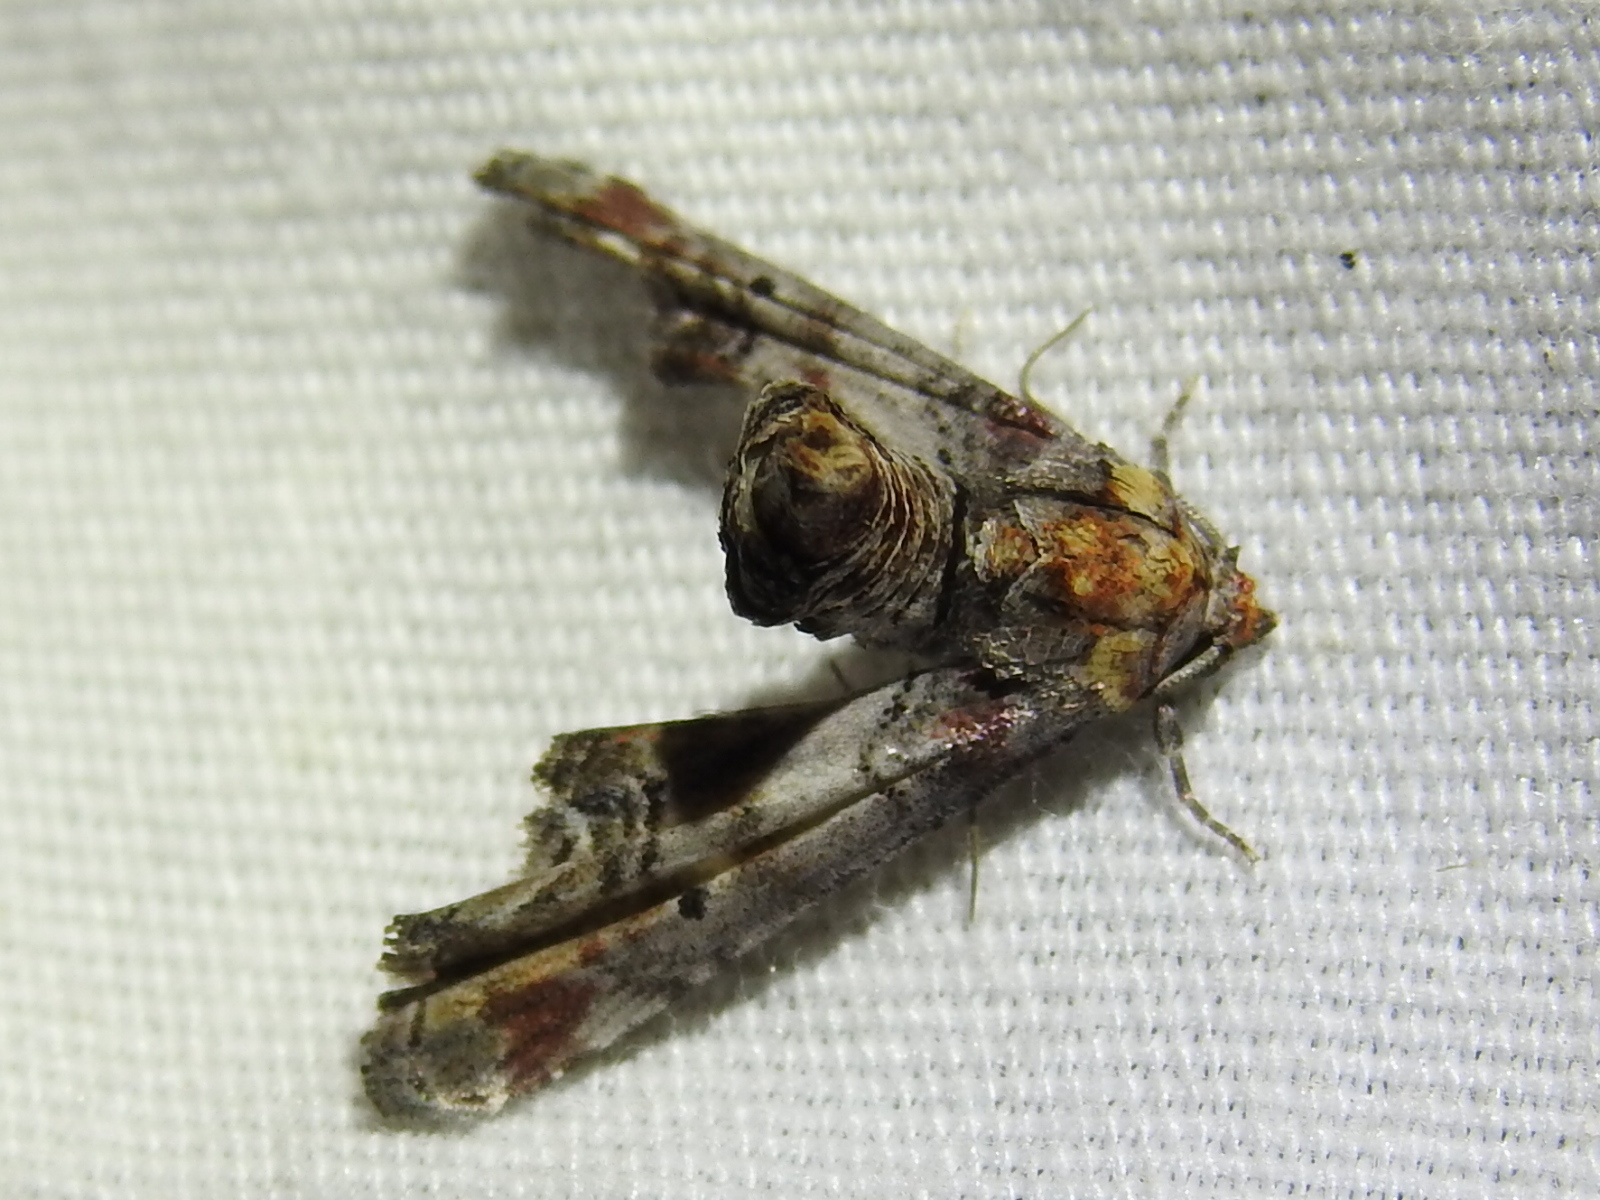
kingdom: Animalia
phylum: Arthropoda
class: Insecta
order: Lepidoptera
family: Euteliidae
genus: Marathyssa
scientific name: Marathyssa inficita
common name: Dark marathyssa moth
